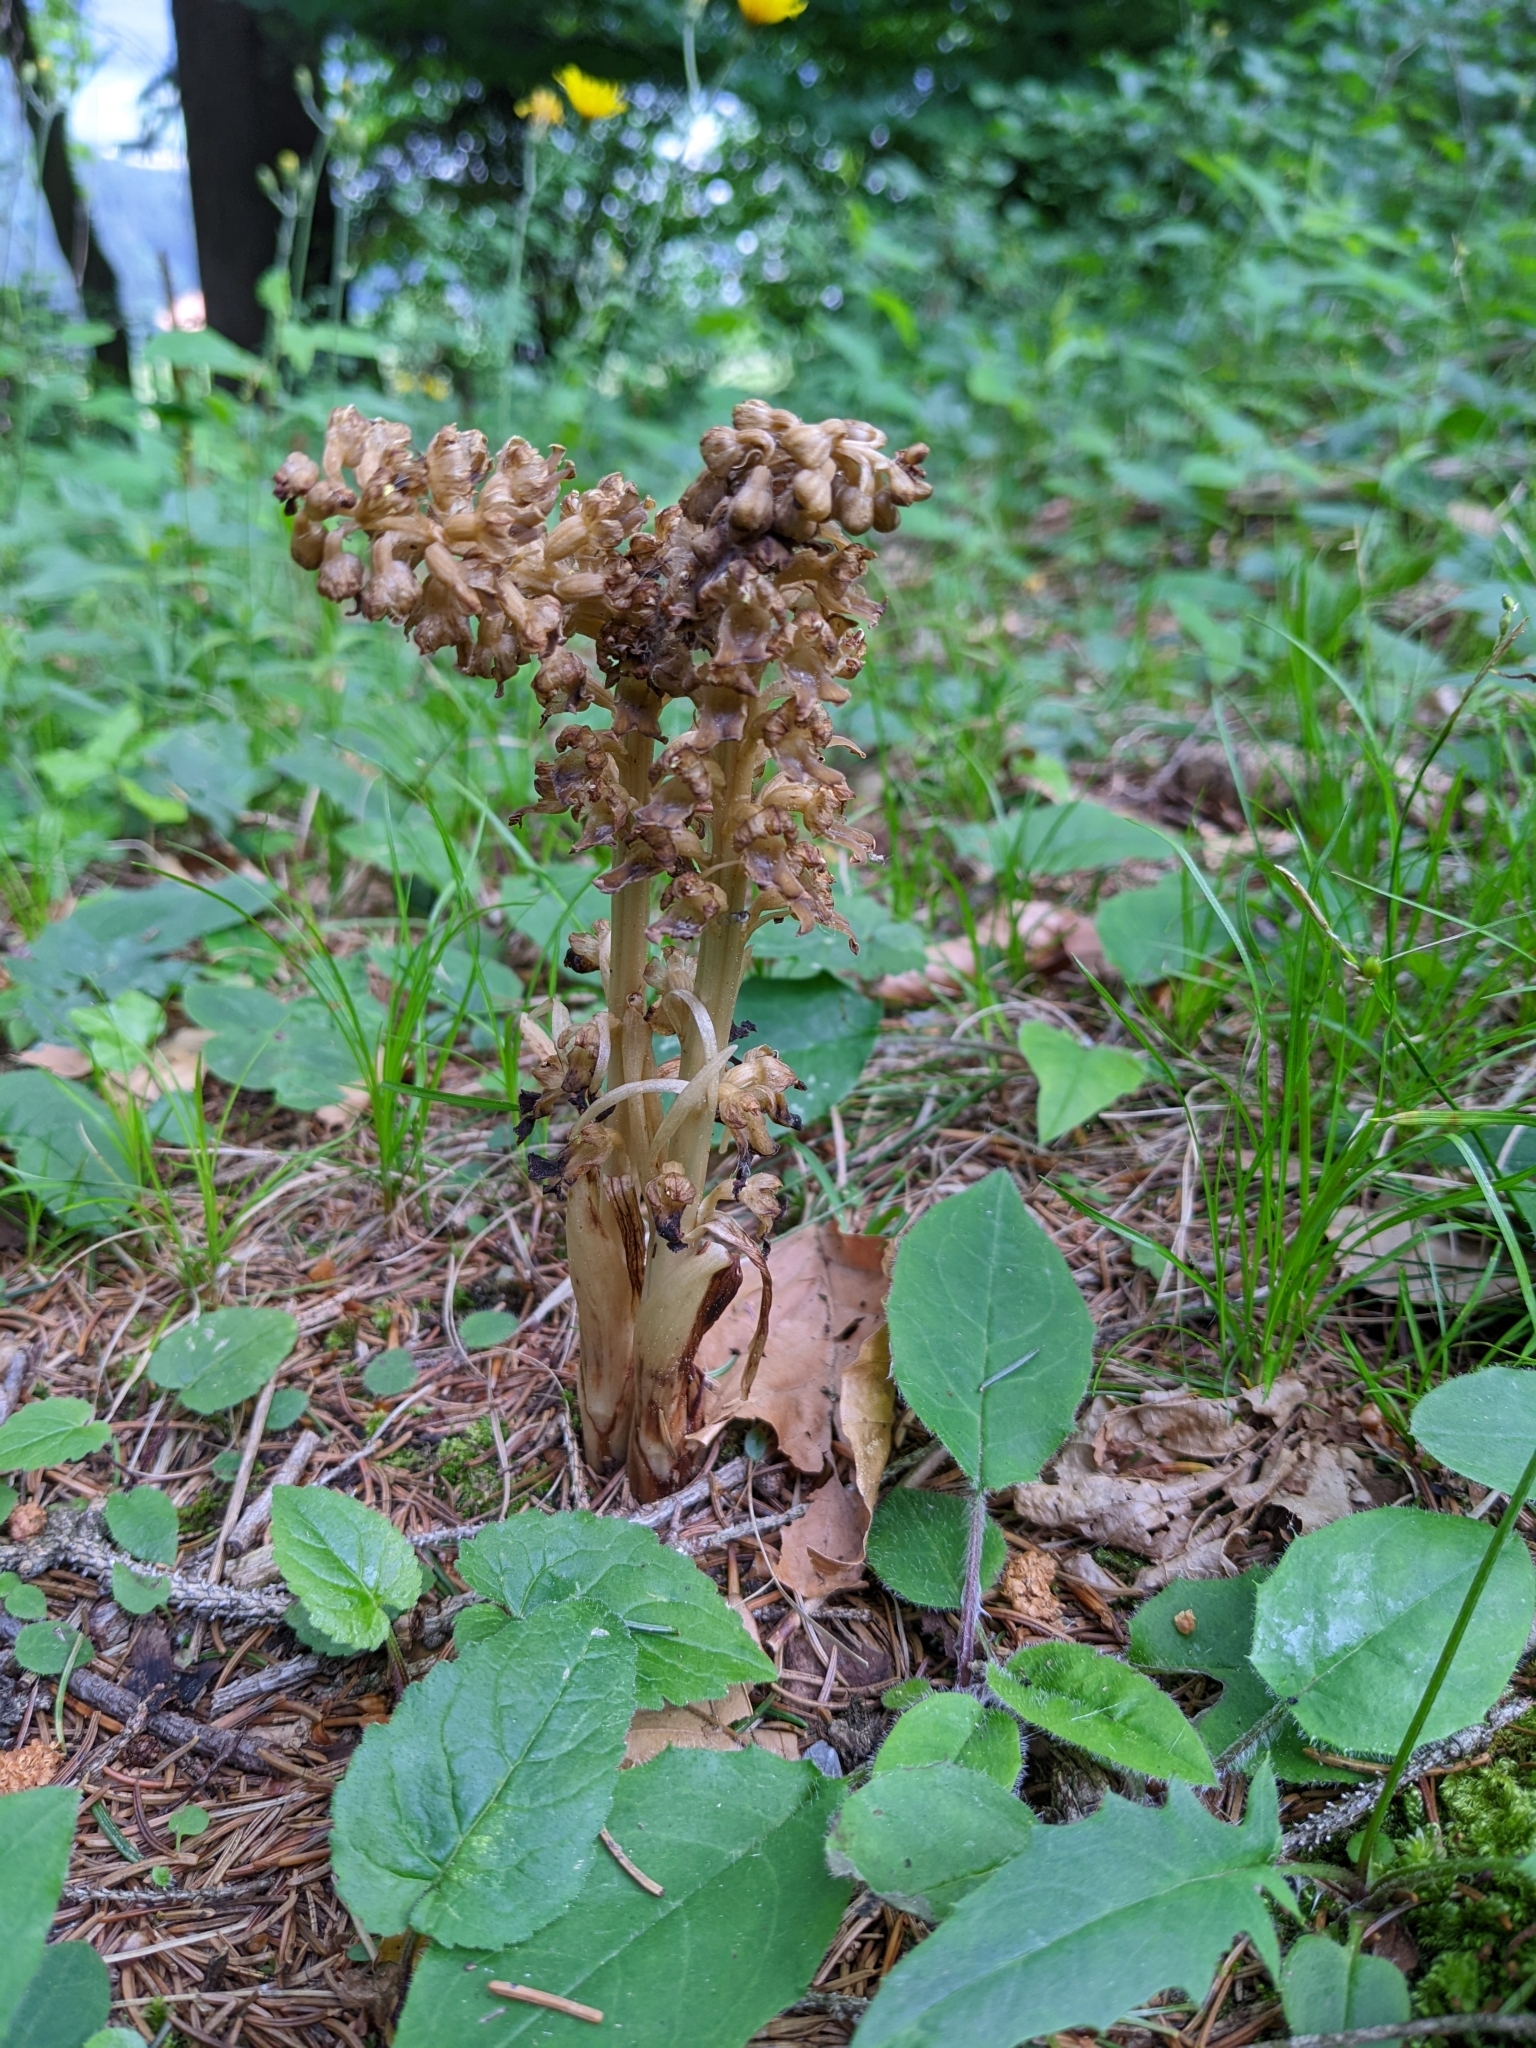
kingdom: Plantae
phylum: Tracheophyta
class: Liliopsida
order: Asparagales
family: Orchidaceae
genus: Neottia
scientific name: Neottia nidus-avis
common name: Bird's-nest orchid
